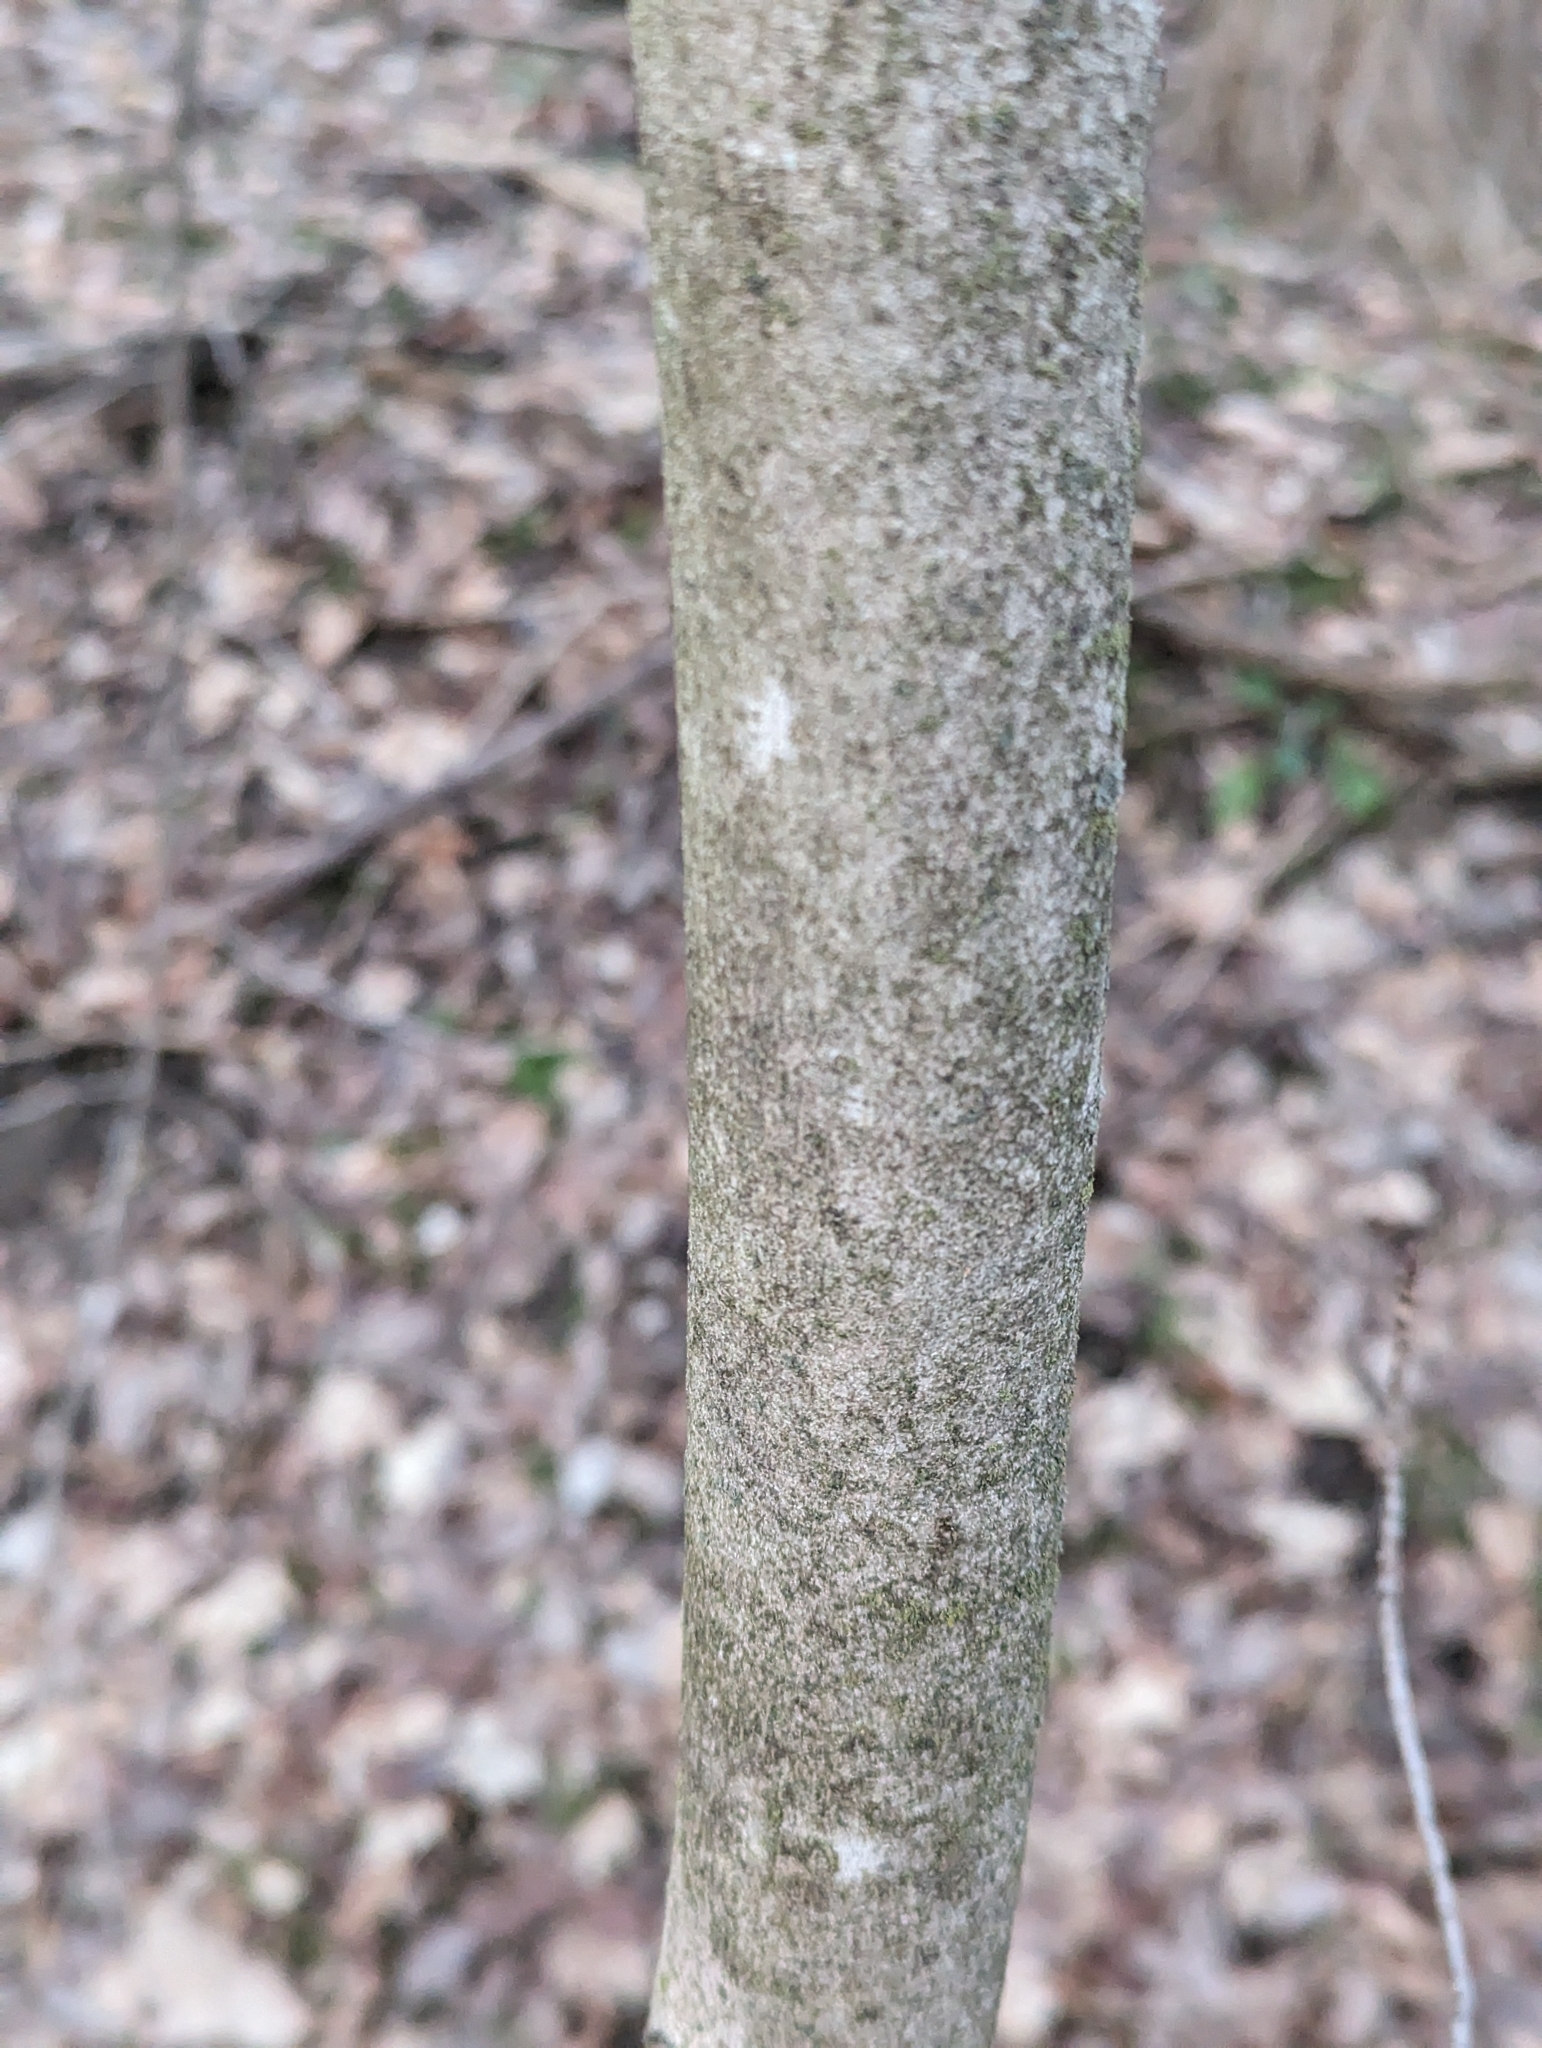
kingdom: Plantae
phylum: Tracheophyta
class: Magnoliopsida
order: Sapindales
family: Sapindaceae
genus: Acer
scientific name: Acer saccharum
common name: Sugar maple
